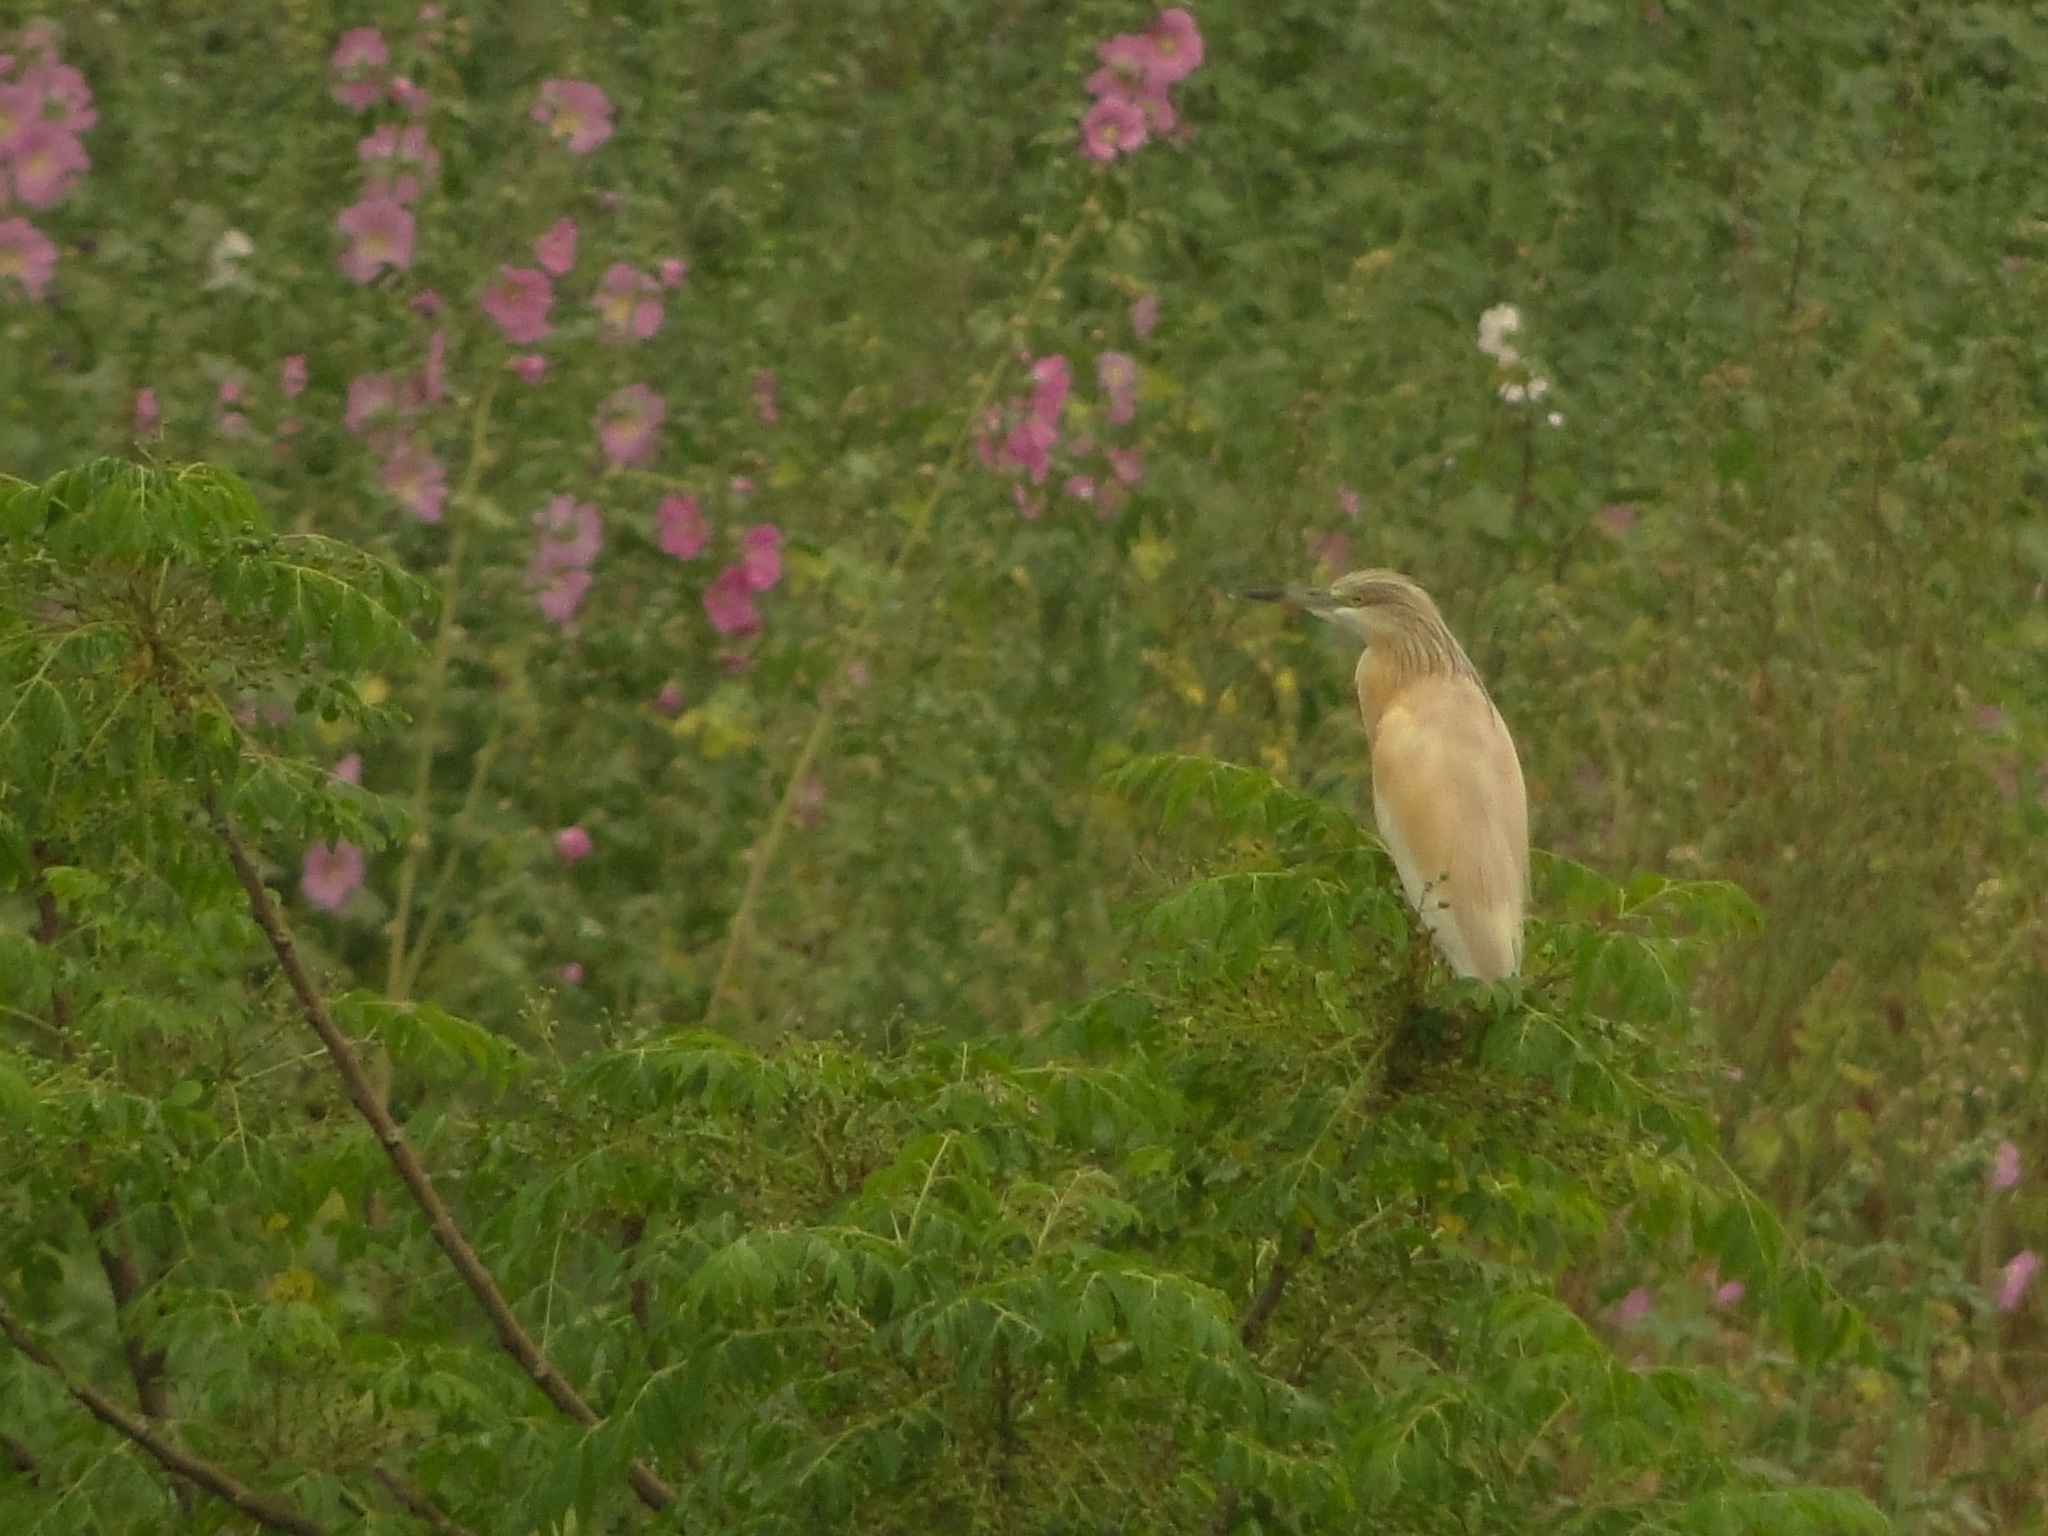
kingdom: Animalia
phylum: Chordata
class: Aves
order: Pelecaniformes
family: Ardeidae
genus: Ardeola
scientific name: Ardeola ralloides
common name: Squacco heron
